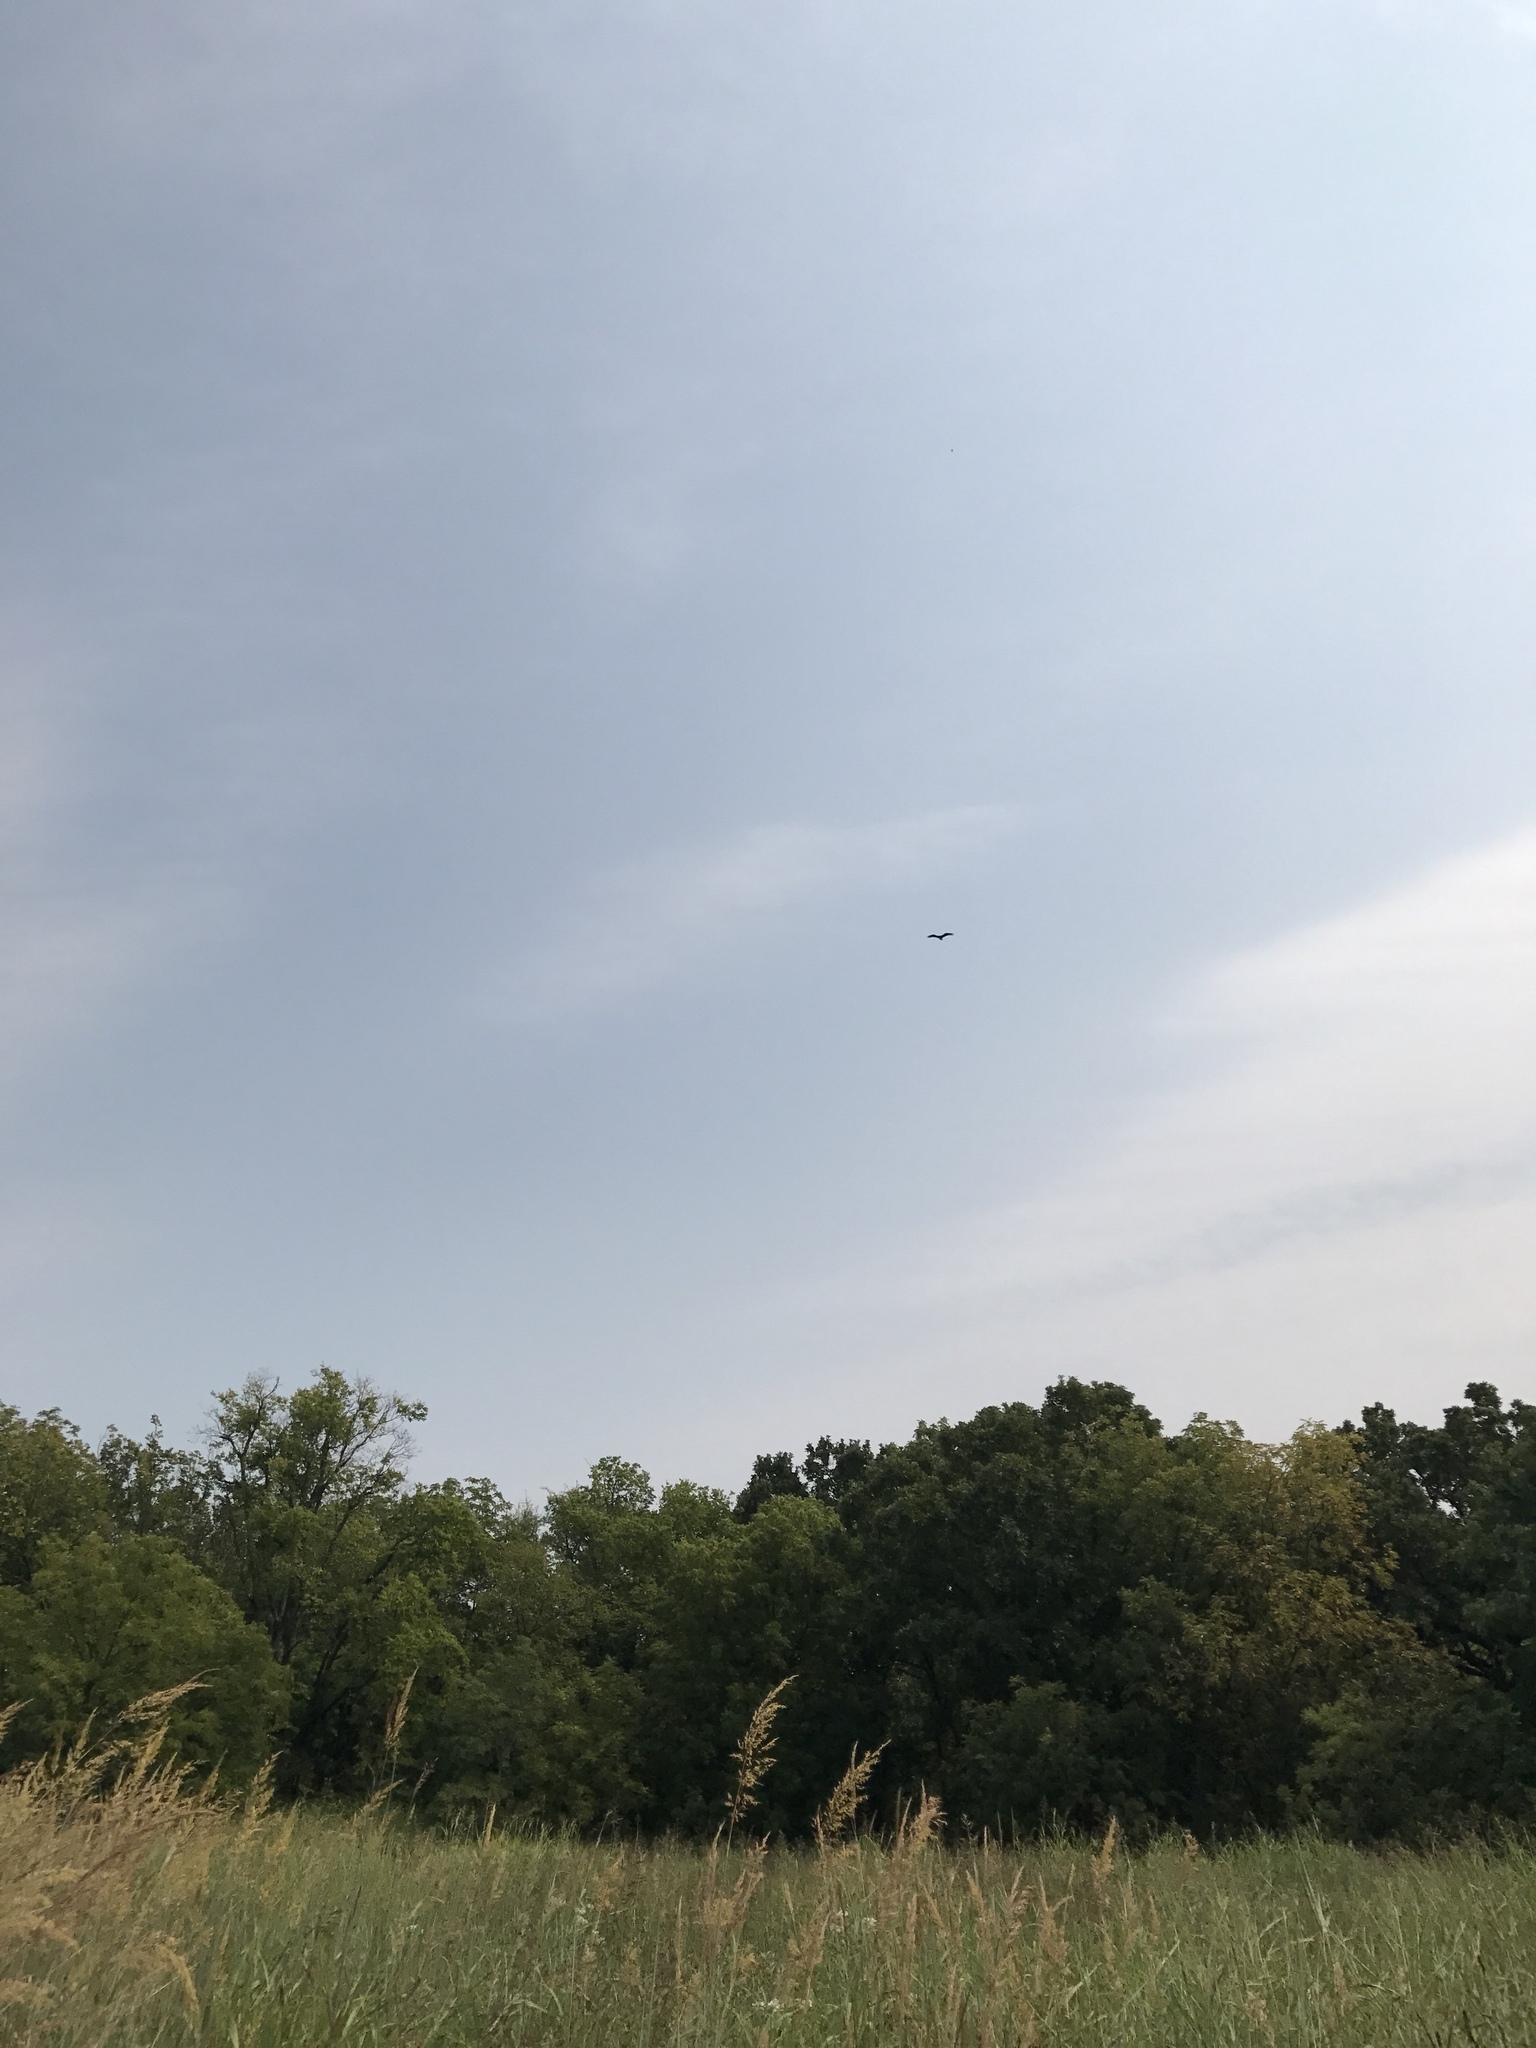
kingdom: Animalia
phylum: Chordata
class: Aves
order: Accipitriformes
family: Cathartidae
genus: Cathartes
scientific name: Cathartes aura
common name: Turkey vulture
